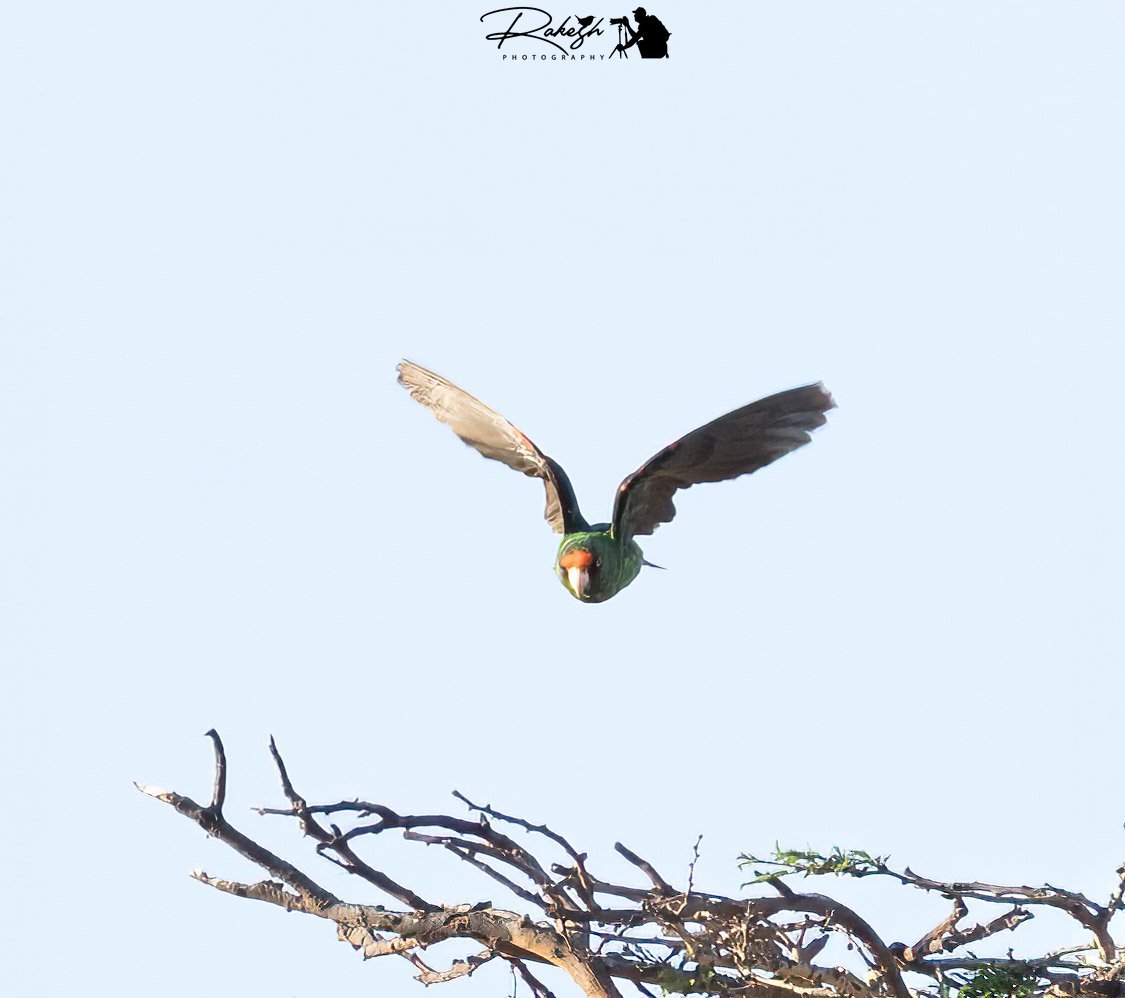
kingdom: Animalia
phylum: Chordata
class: Aves
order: Psittaciformes
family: Psittacidae
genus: Poicephalus
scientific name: Poicephalus gulielmi
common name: Red-fronted parrot
